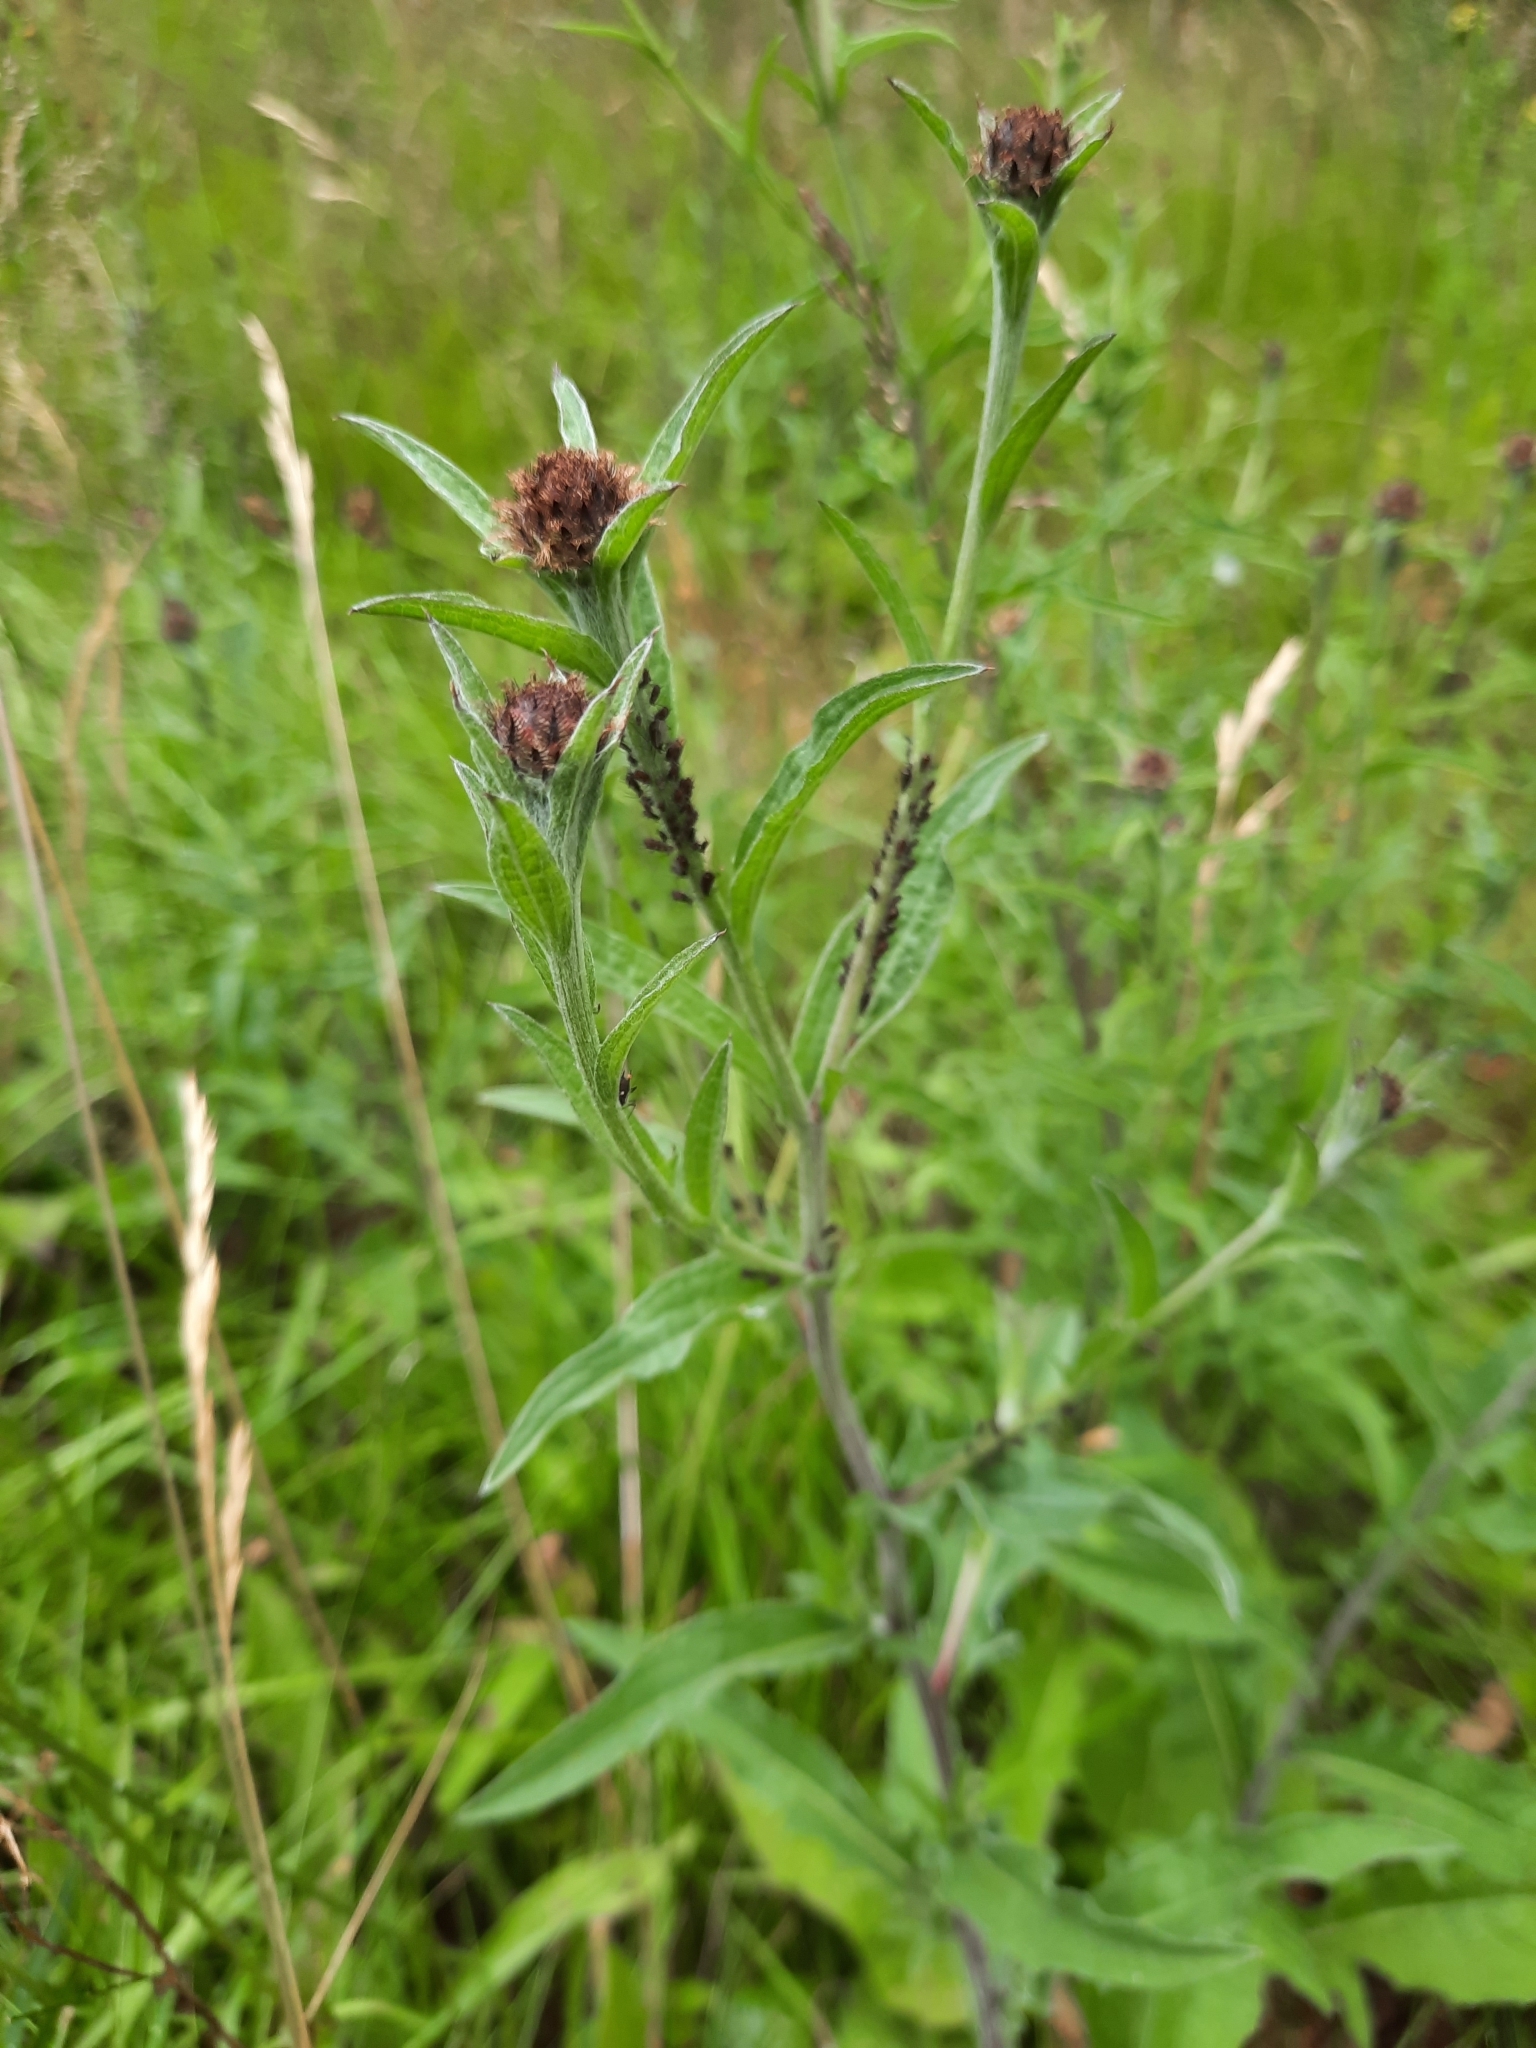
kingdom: Plantae
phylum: Tracheophyta
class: Magnoliopsida
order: Asterales
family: Asteraceae
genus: Centaurea
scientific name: Centaurea nigra
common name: Lesser knapweed
